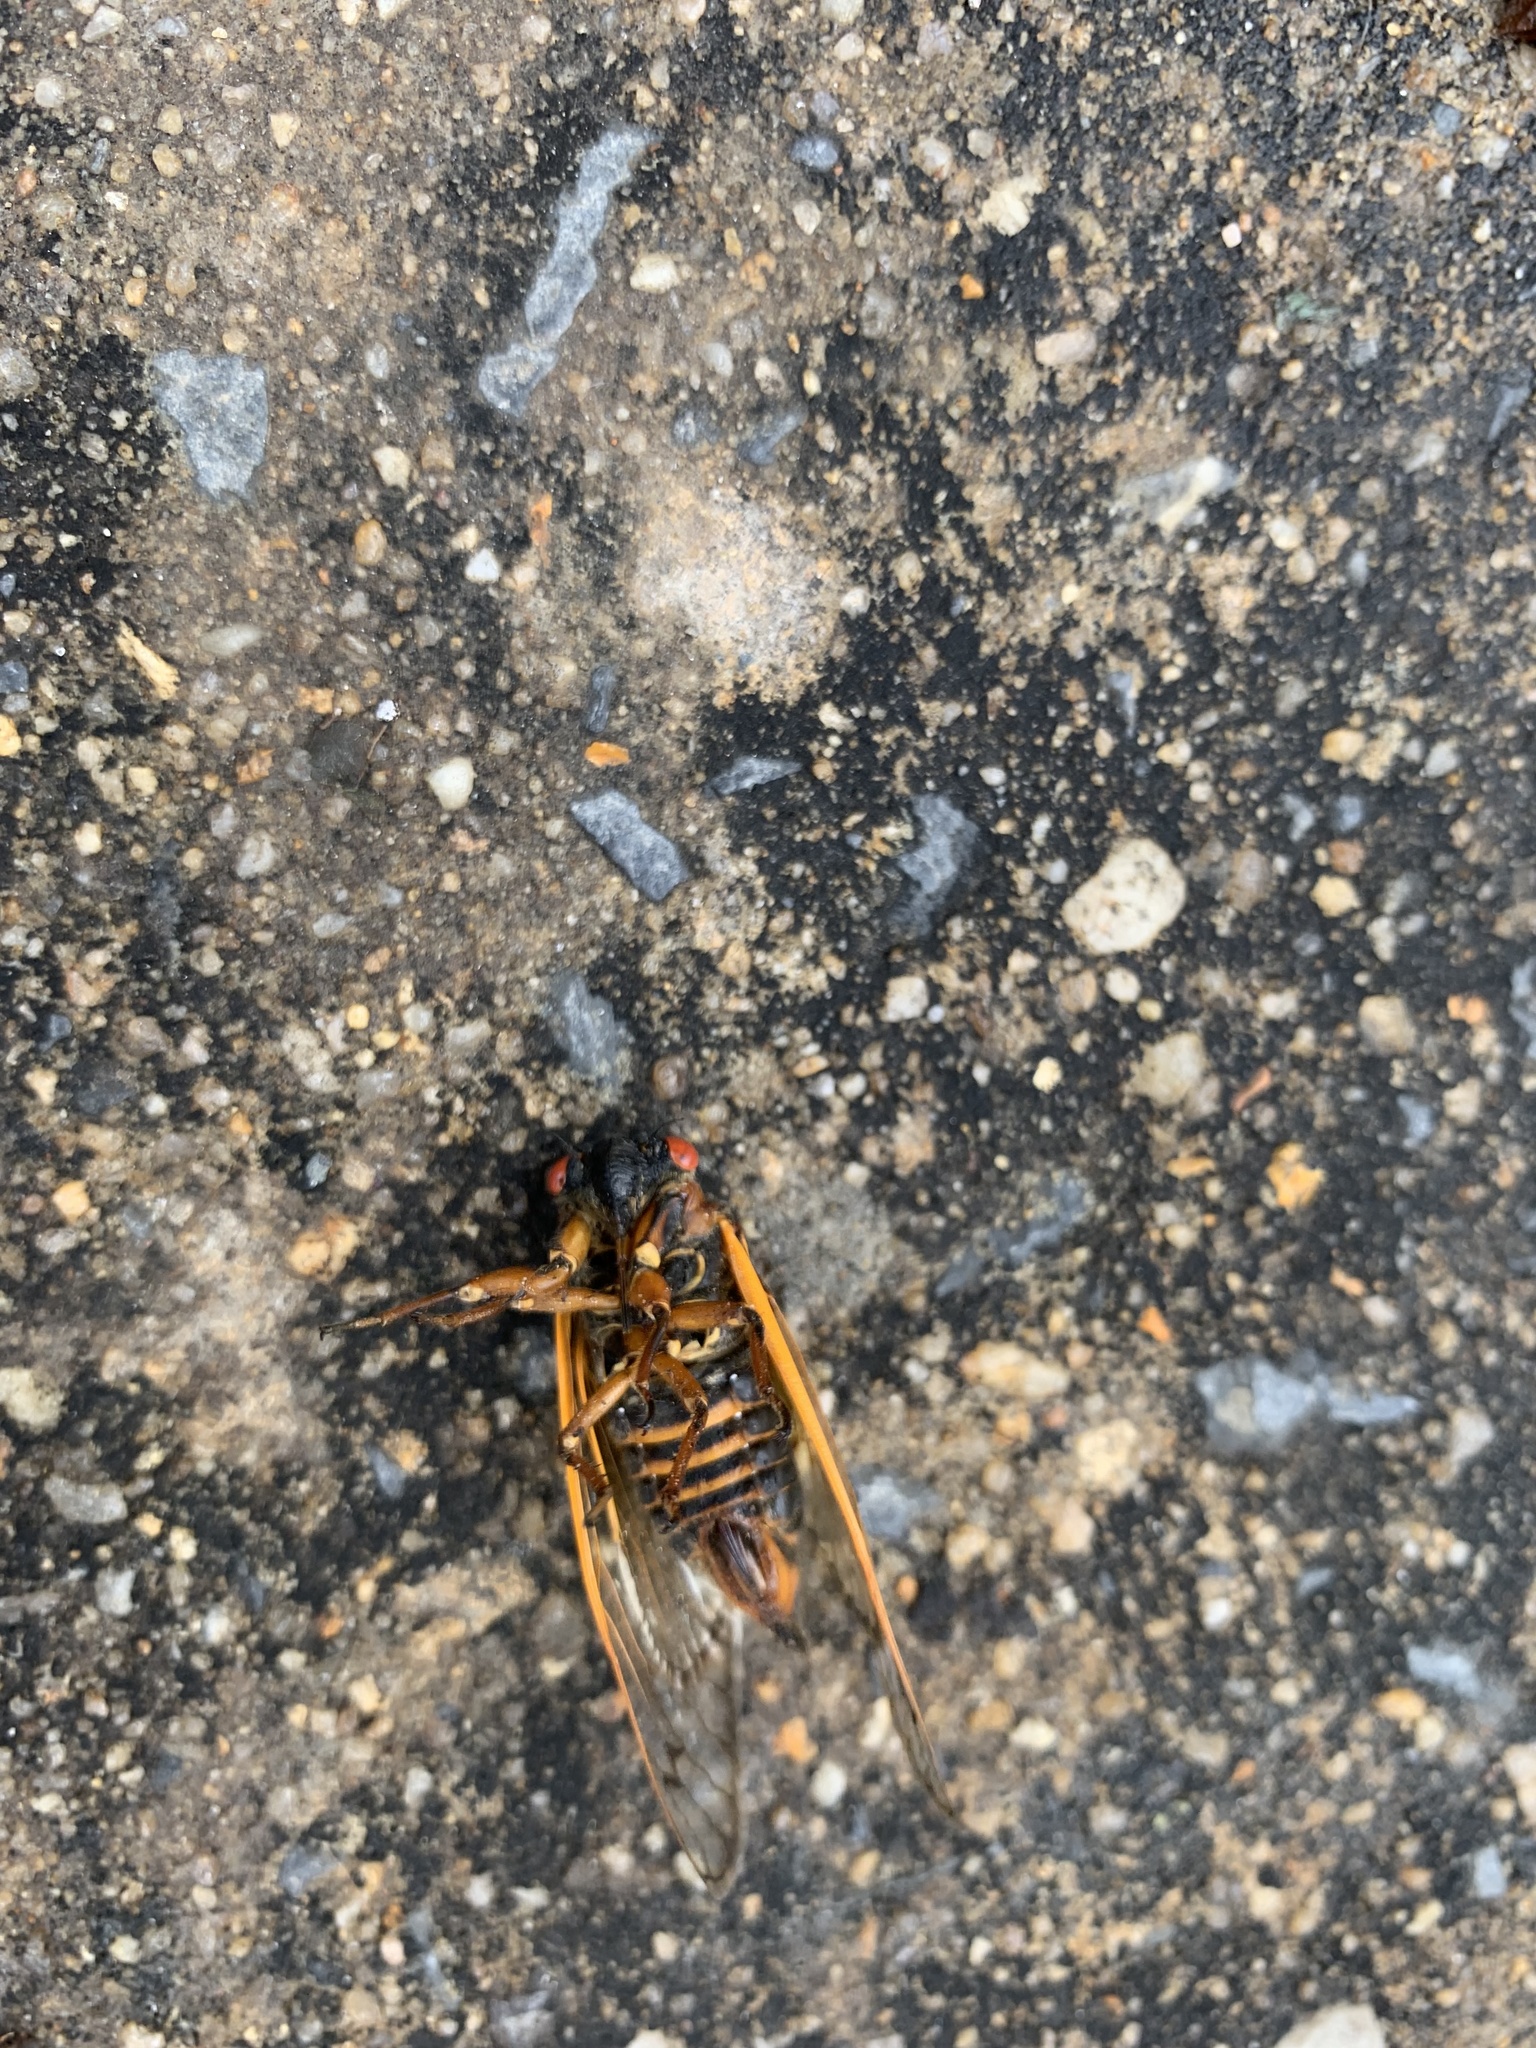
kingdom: Animalia
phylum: Arthropoda
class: Insecta
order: Hemiptera
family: Cicadidae
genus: Magicicada
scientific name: Magicicada septendecim
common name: Periodical cicada
